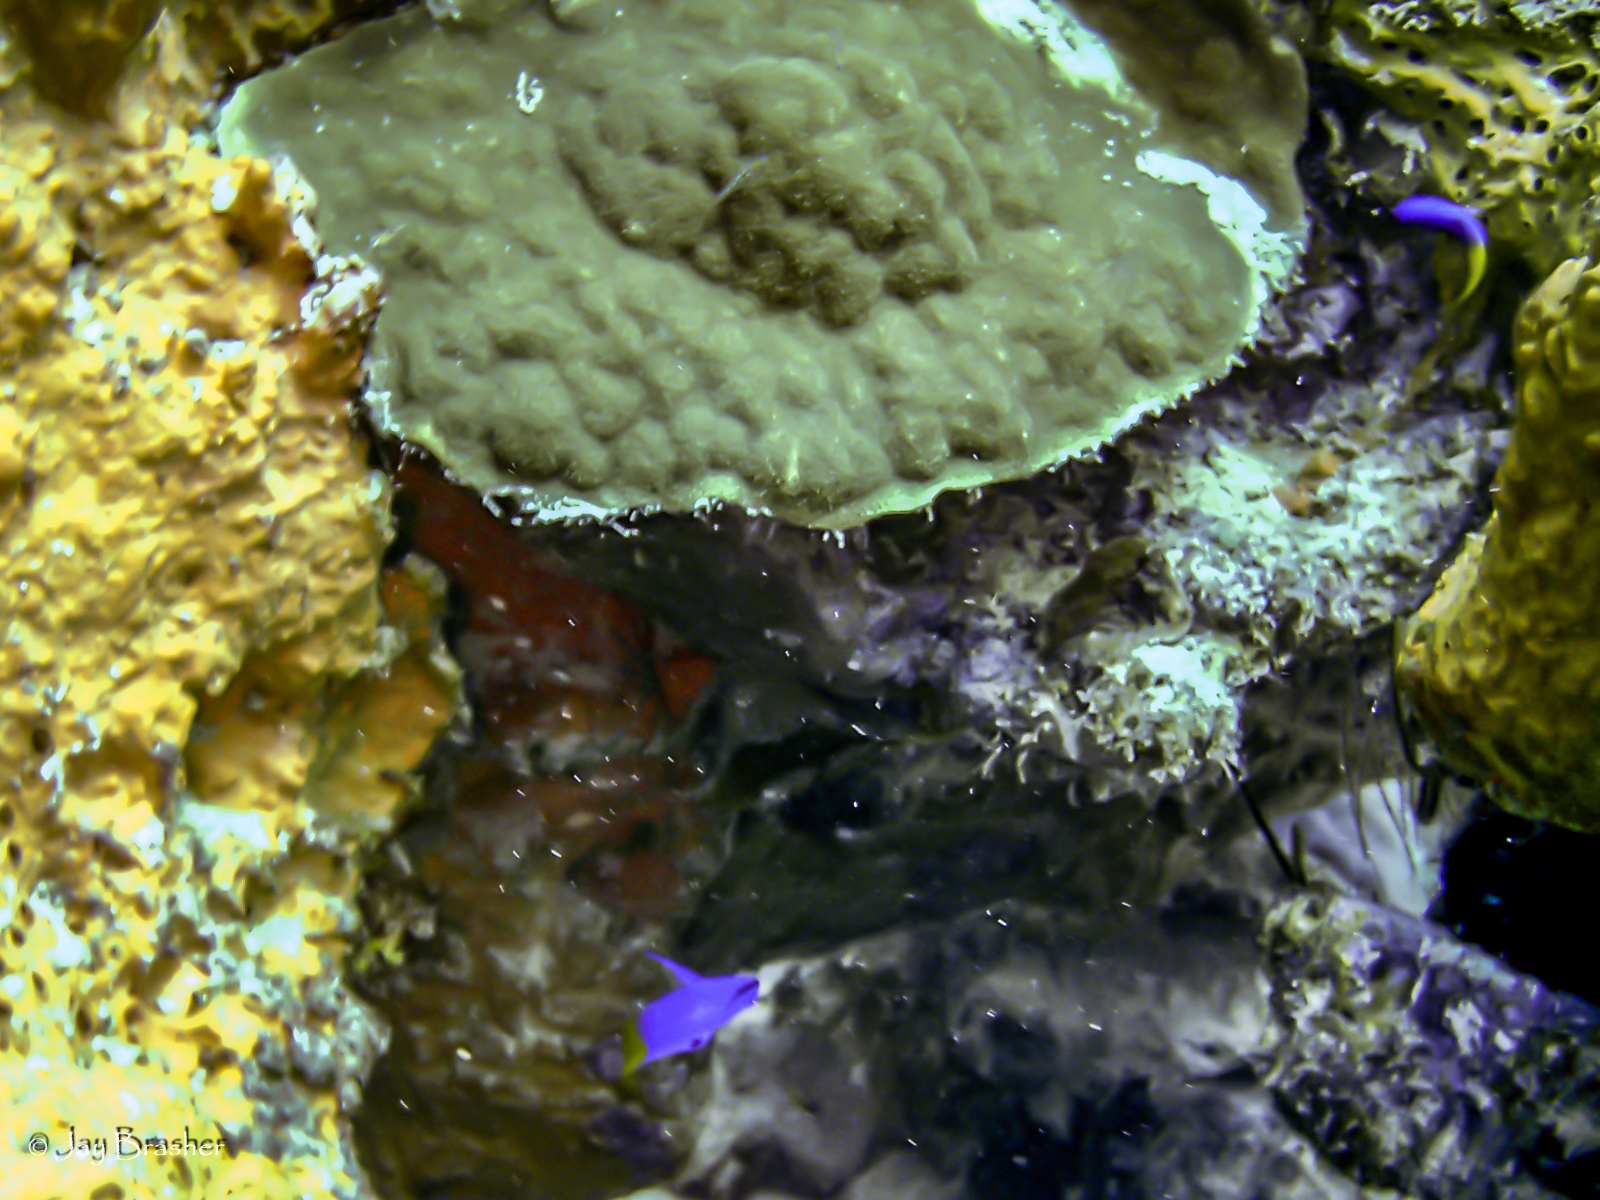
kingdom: Animalia
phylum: Chordata
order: Perciformes
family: Grammatidae
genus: Gramma
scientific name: Gramma loreto
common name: Fairy basslet
